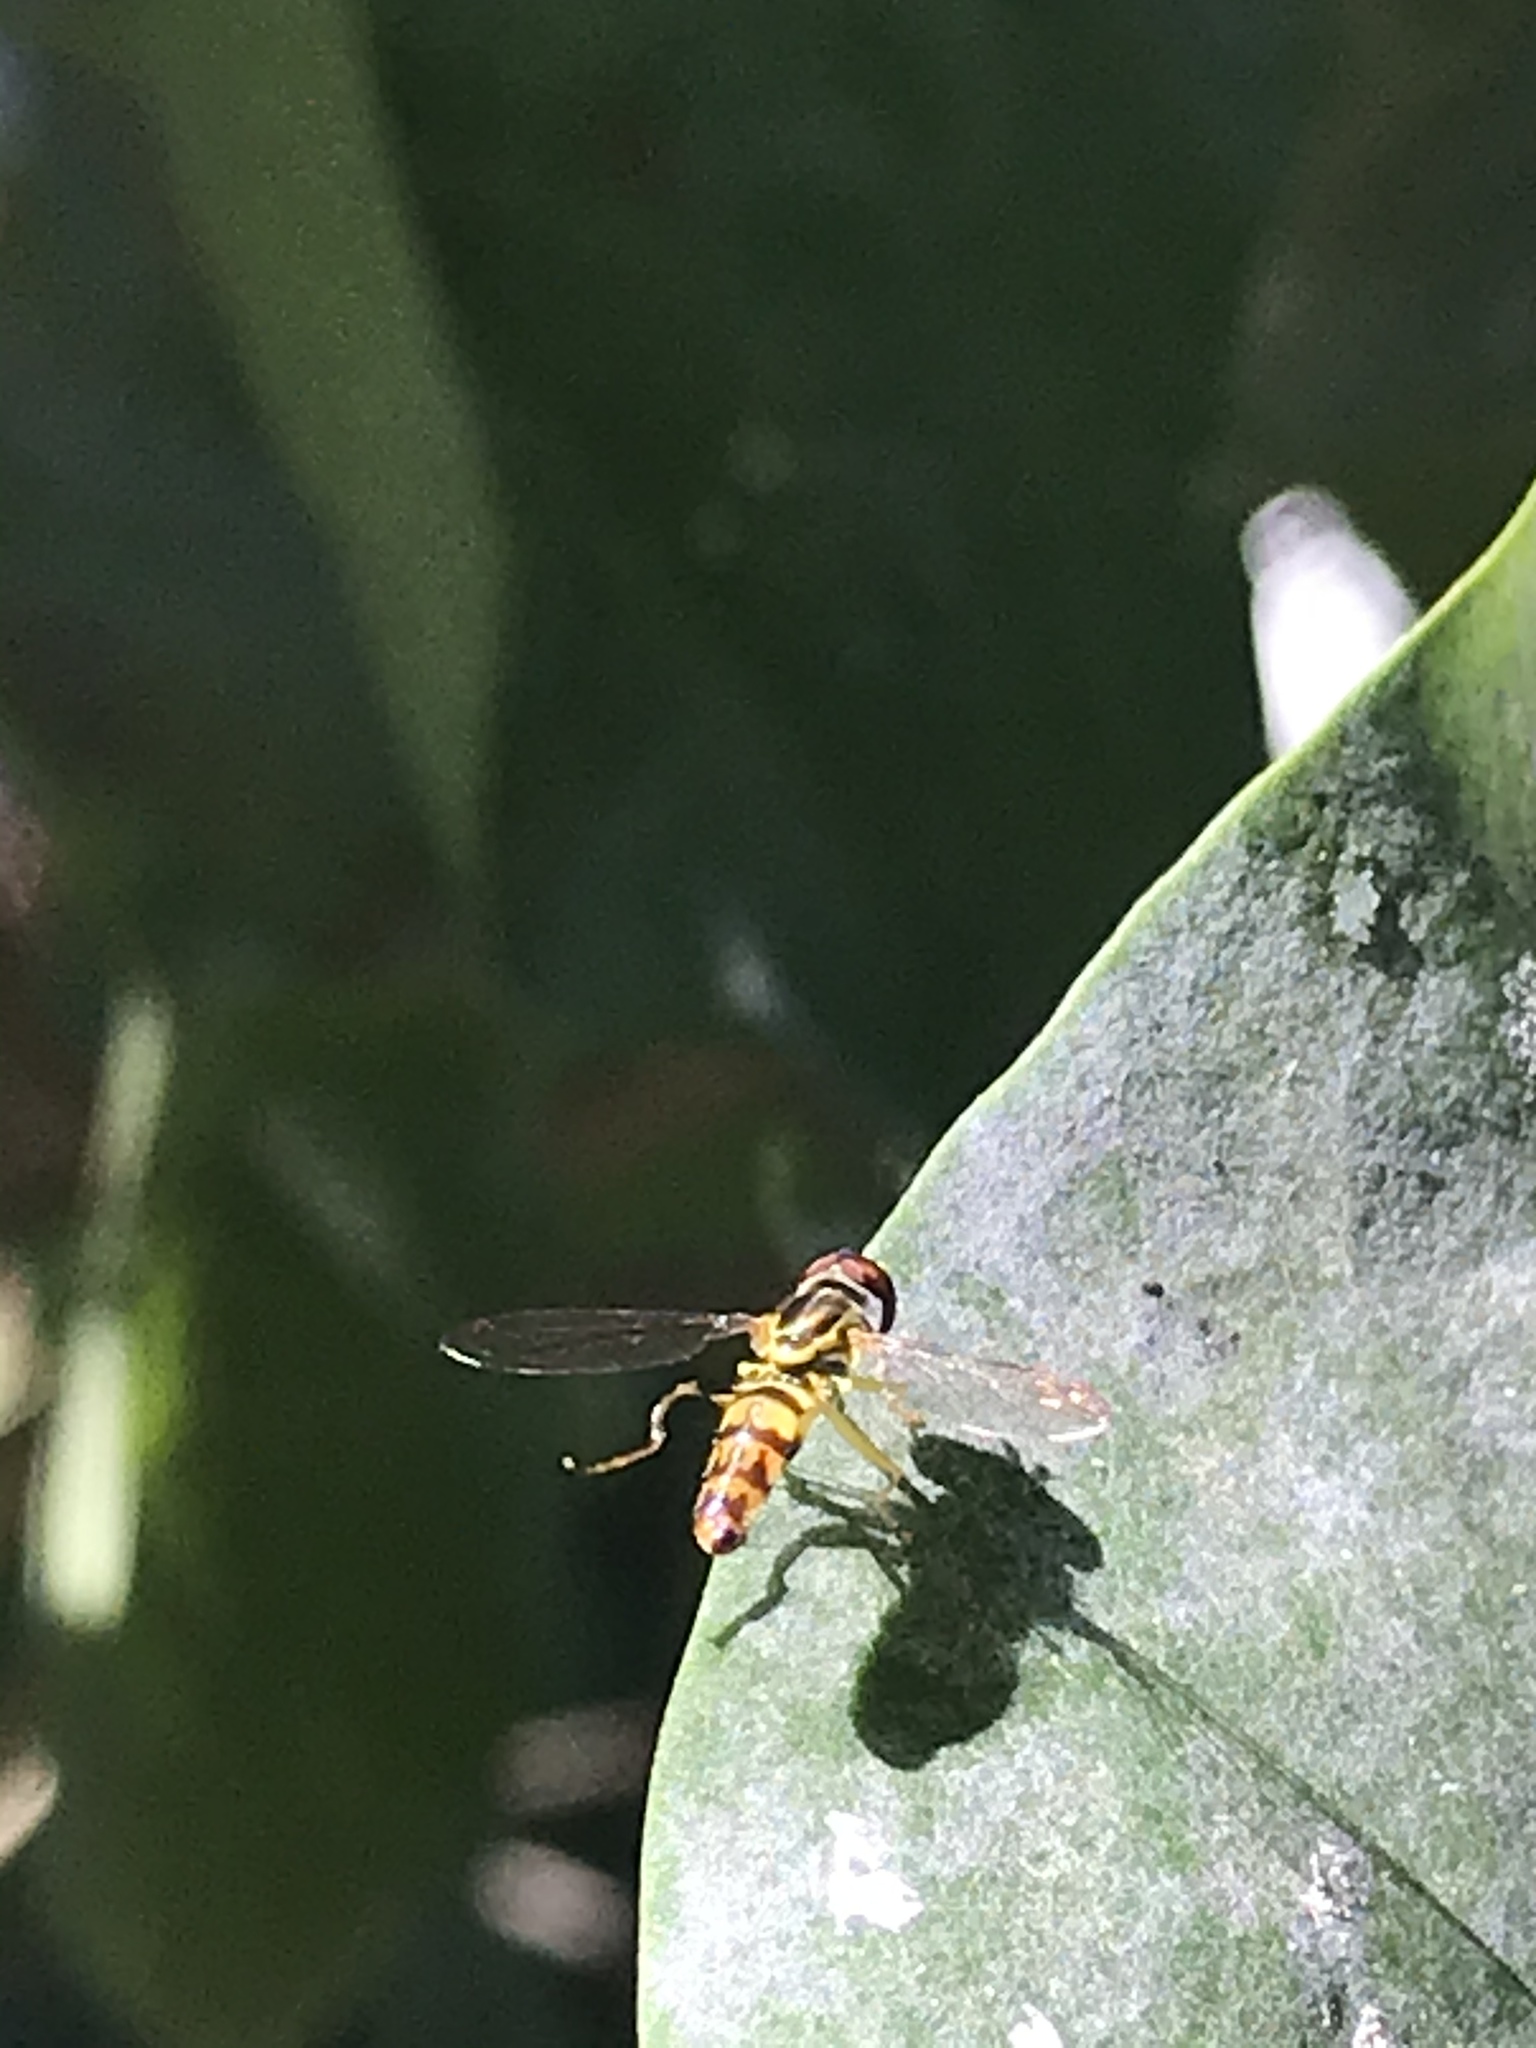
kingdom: Animalia
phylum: Arthropoda
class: Insecta
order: Diptera
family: Syrphidae
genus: Toxomerus
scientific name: Toxomerus geminatus
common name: Eastern calligrapher
